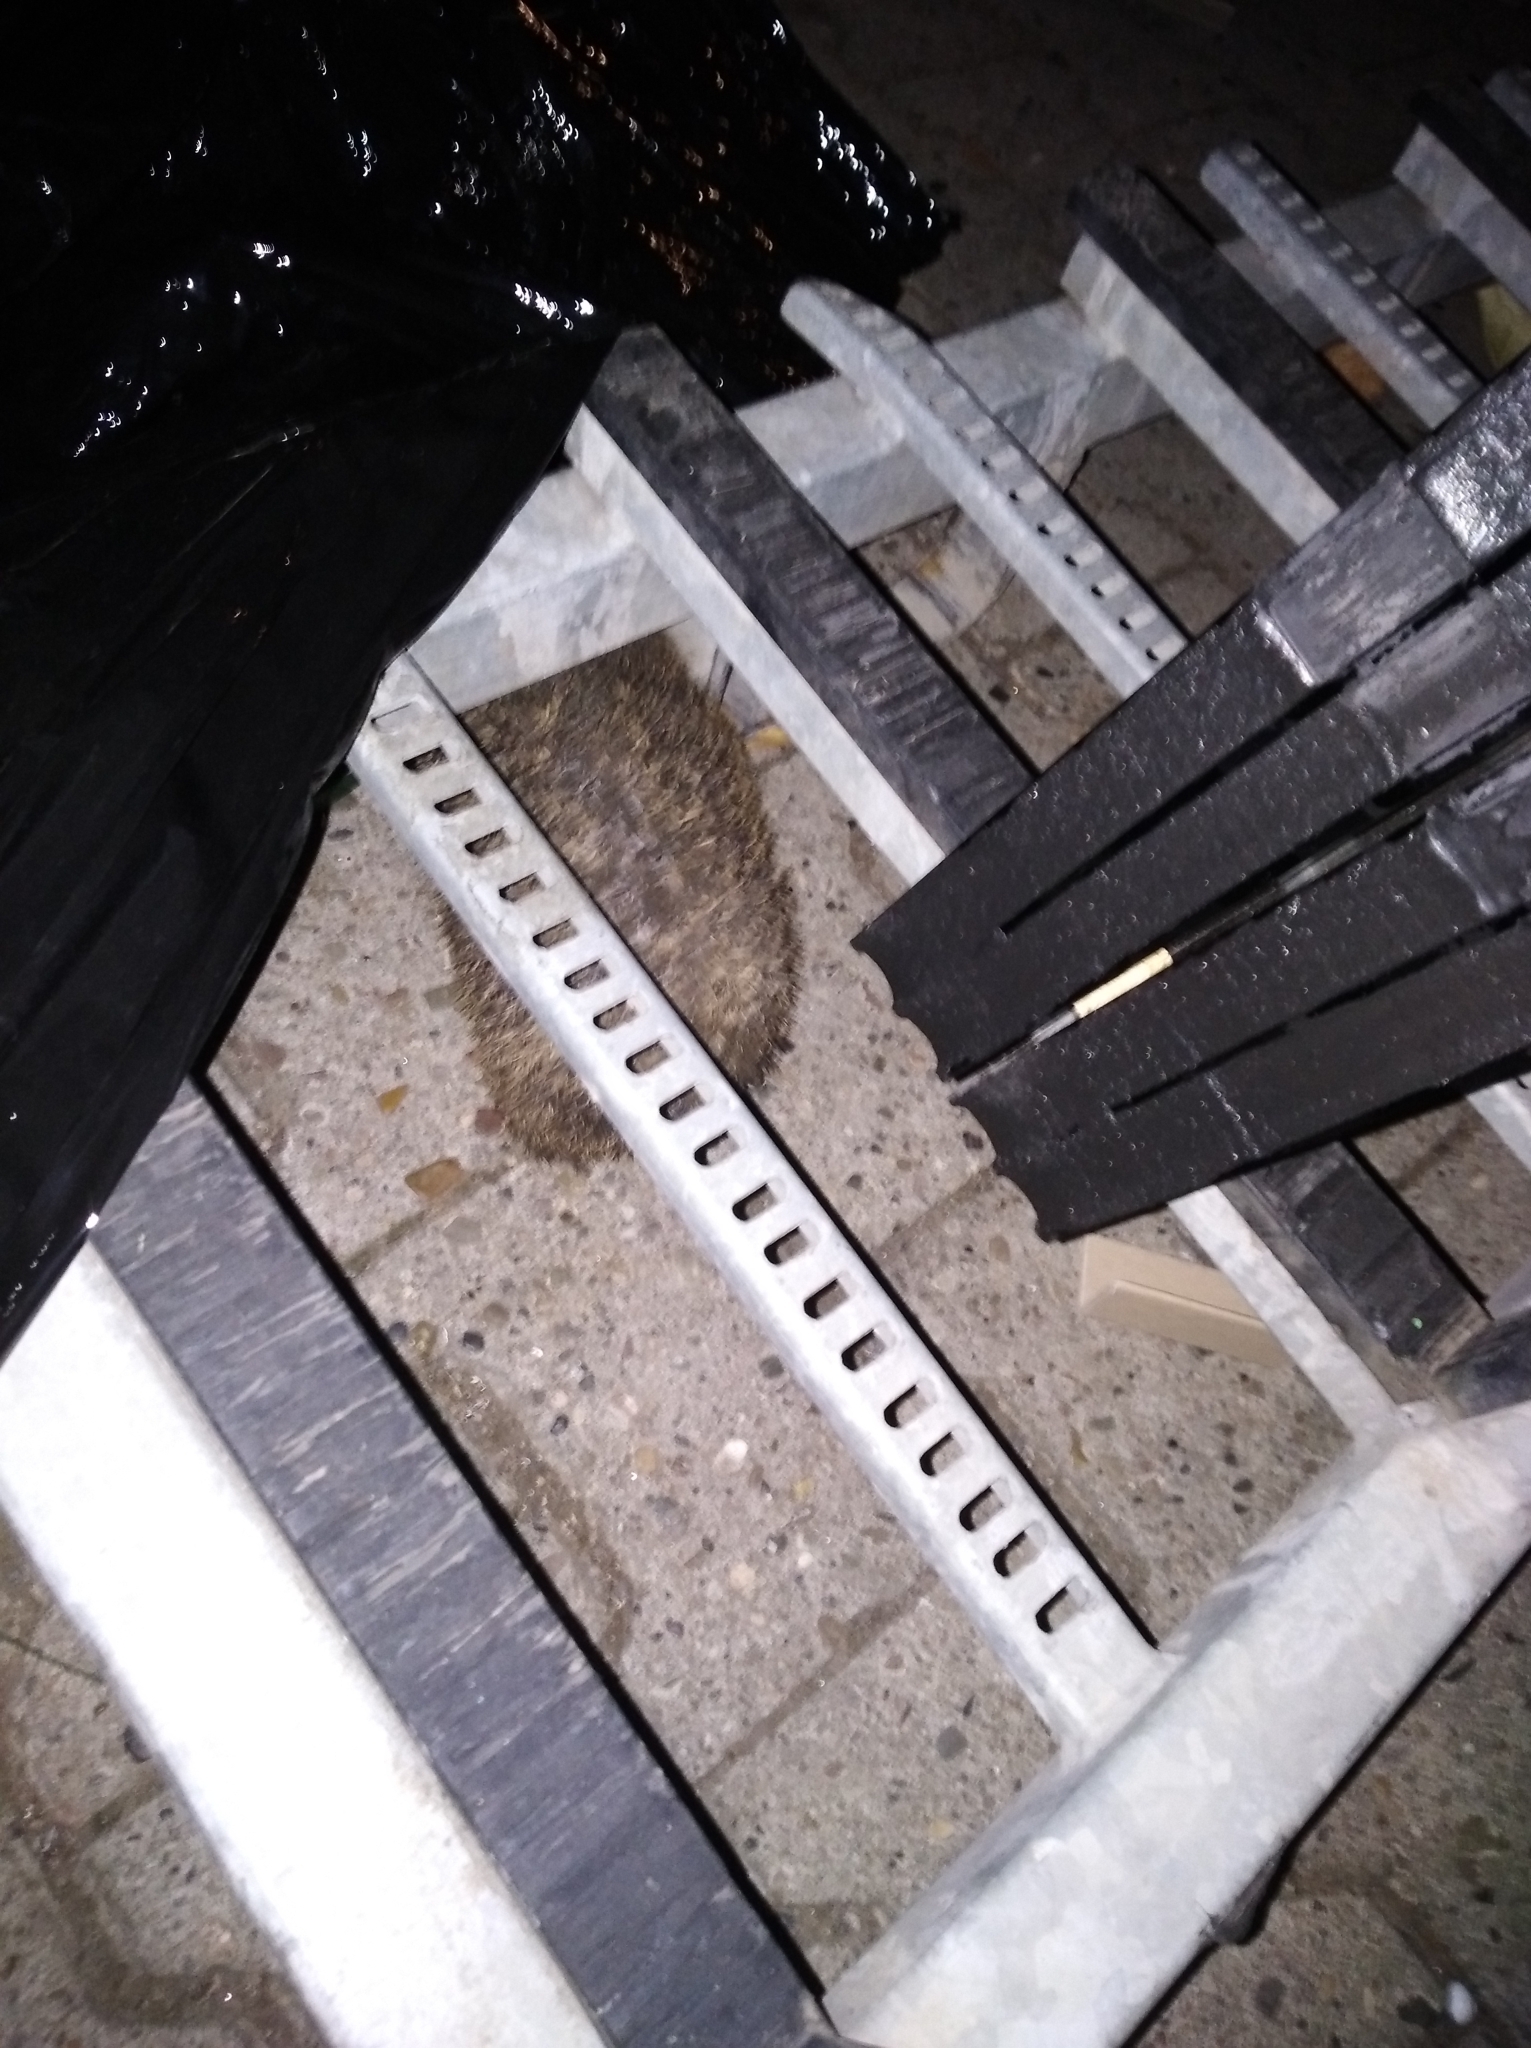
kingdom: Animalia
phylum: Chordata
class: Mammalia
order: Erinaceomorpha
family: Erinaceidae
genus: Erinaceus
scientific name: Erinaceus europaeus
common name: West european hedgehog
